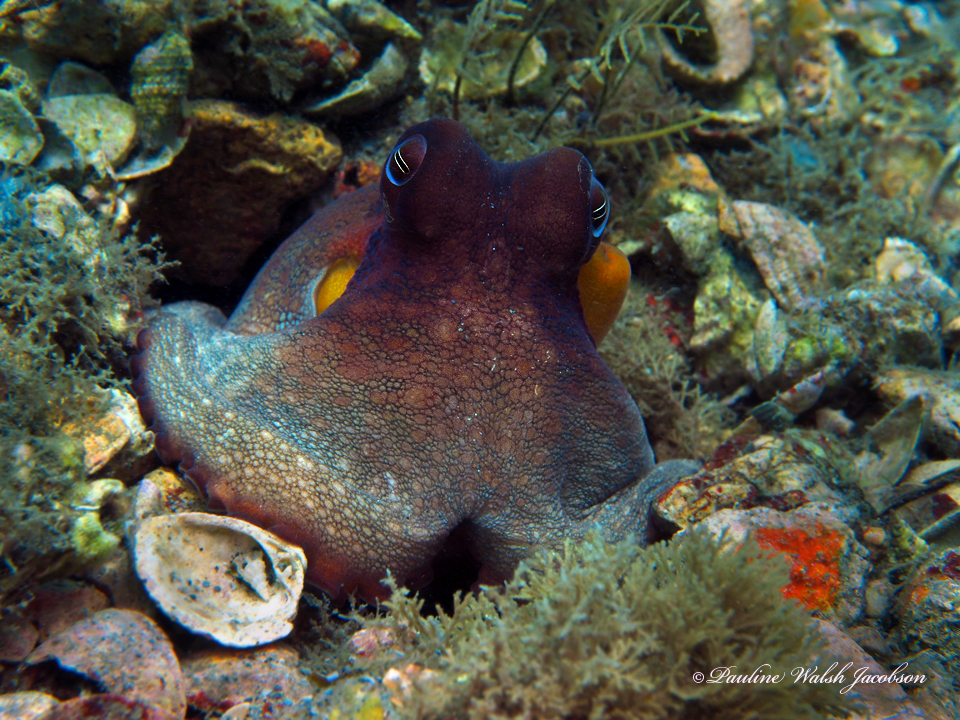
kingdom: Animalia
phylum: Mollusca
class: Cephalopoda
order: Octopoda
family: Octopodidae
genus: Octopus
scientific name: Octopus americanus
